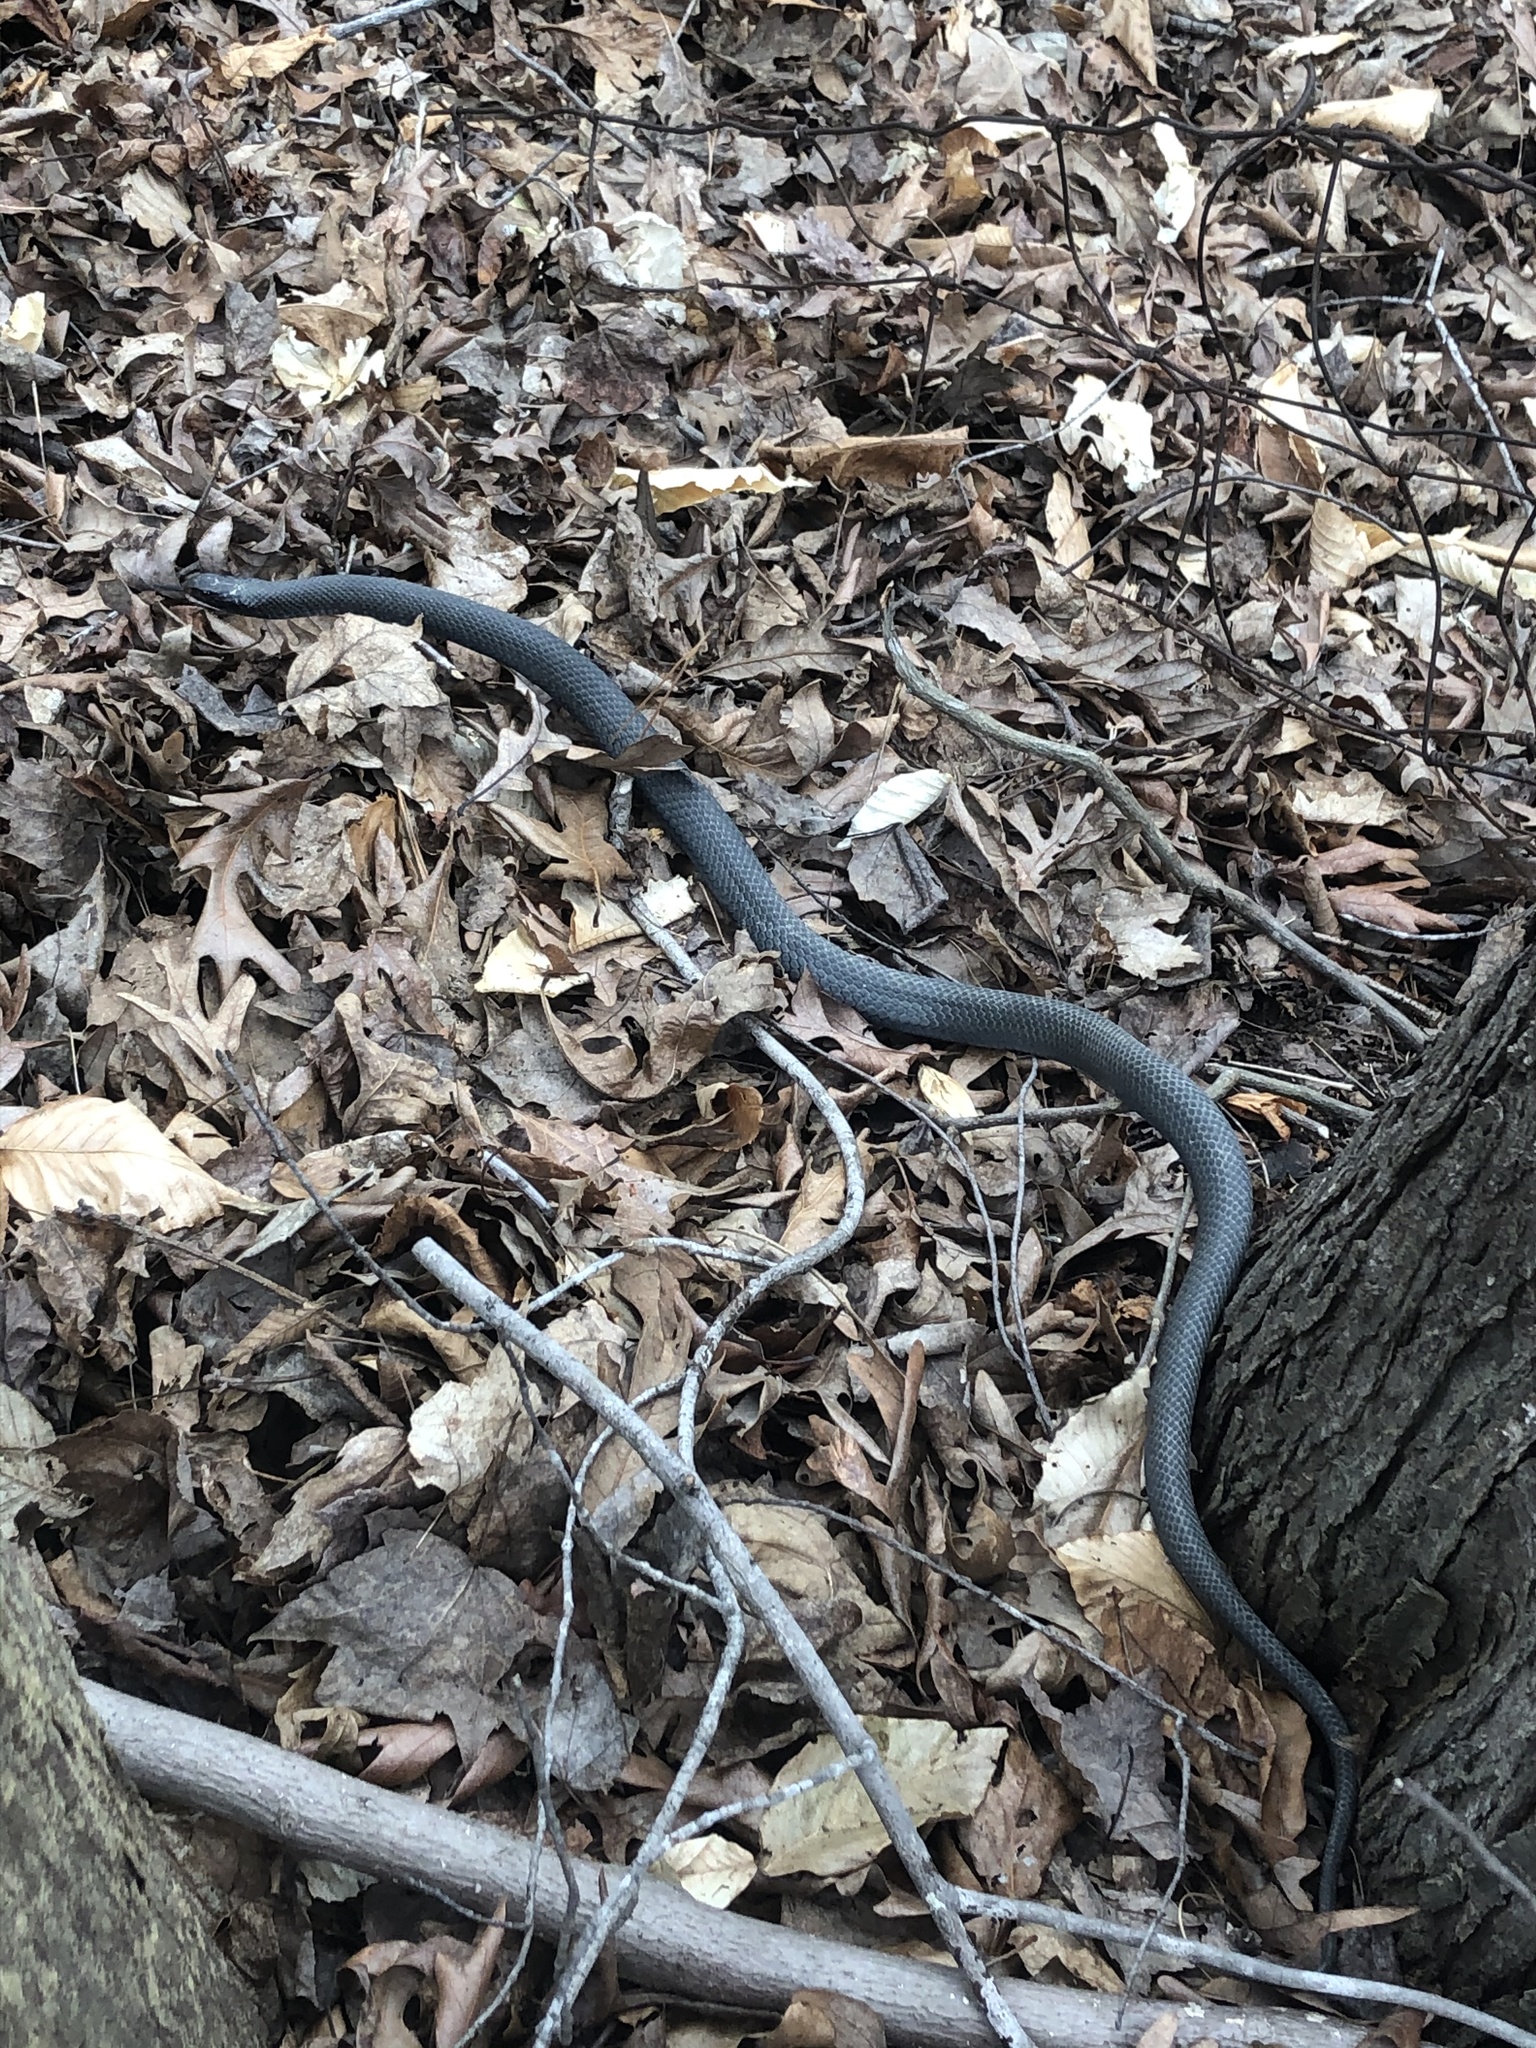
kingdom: Animalia
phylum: Chordata
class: Squamata
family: Colubridae
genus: Coluber
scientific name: Coluber constrictor
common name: Eastern racer
